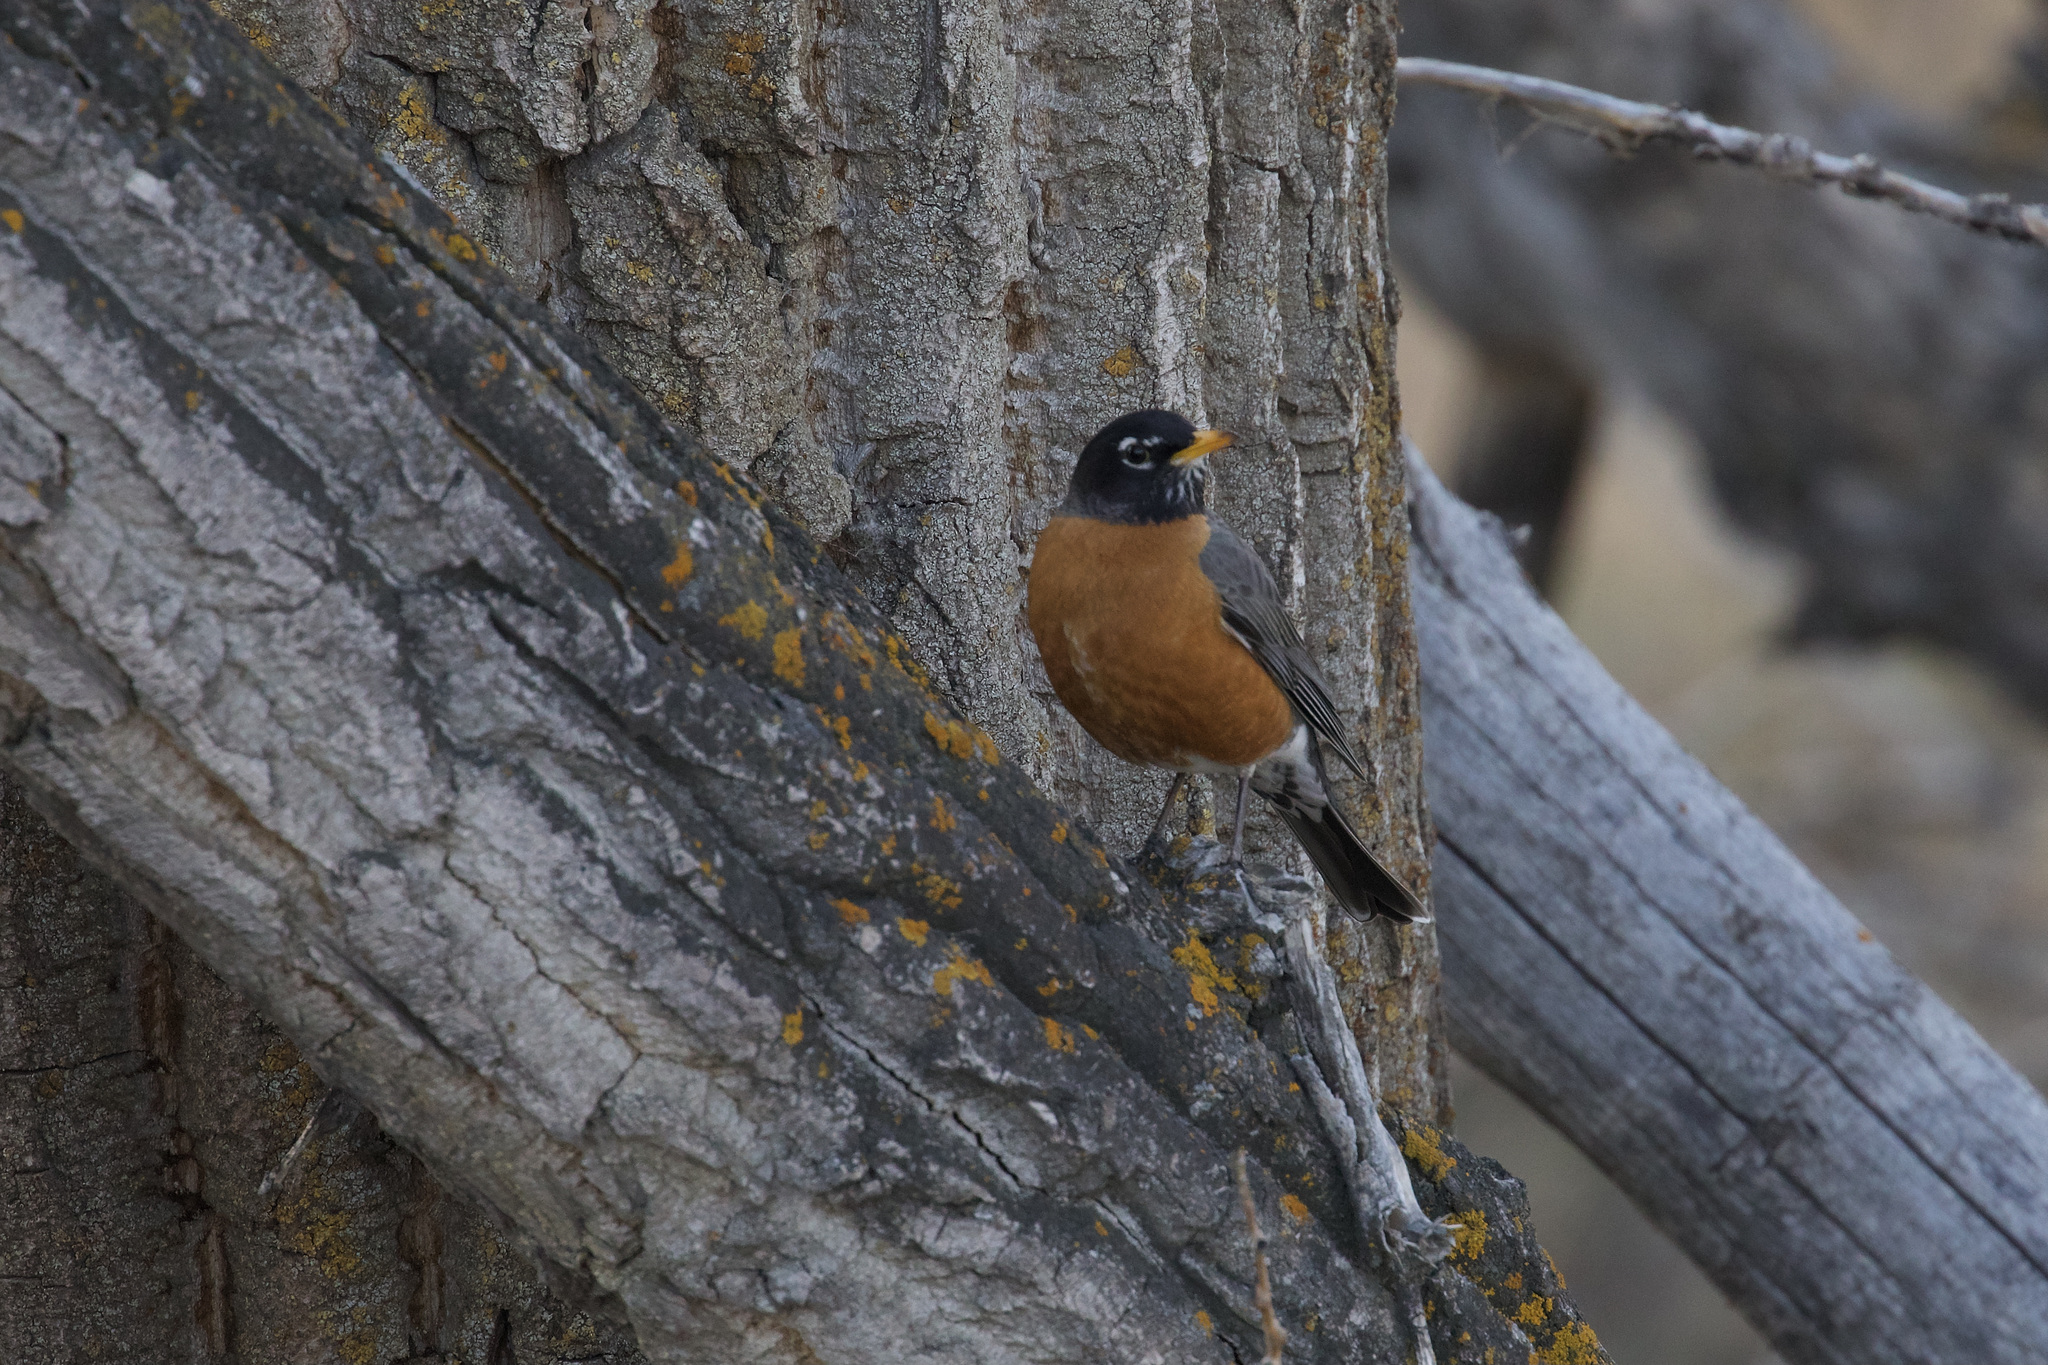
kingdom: Animalia
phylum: Chordata
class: Aves
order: Passeriformes
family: Turdidae
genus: Turdus
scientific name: Turdus migratorius
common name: American robin
